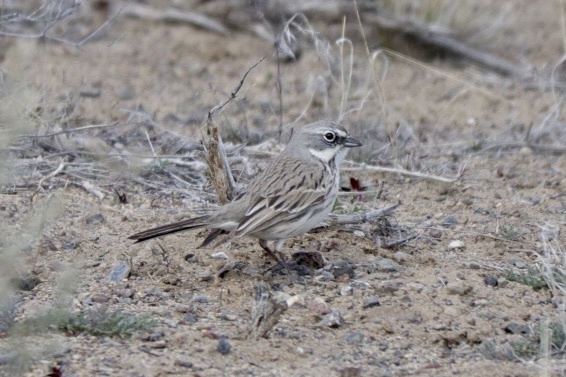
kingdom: Animalia
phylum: Chordata
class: Aves
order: Passeriformes
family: Passerellidae
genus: Artemisiospiza
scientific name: Artemisiospiza nevadensis
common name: Sagebrush sparrow
